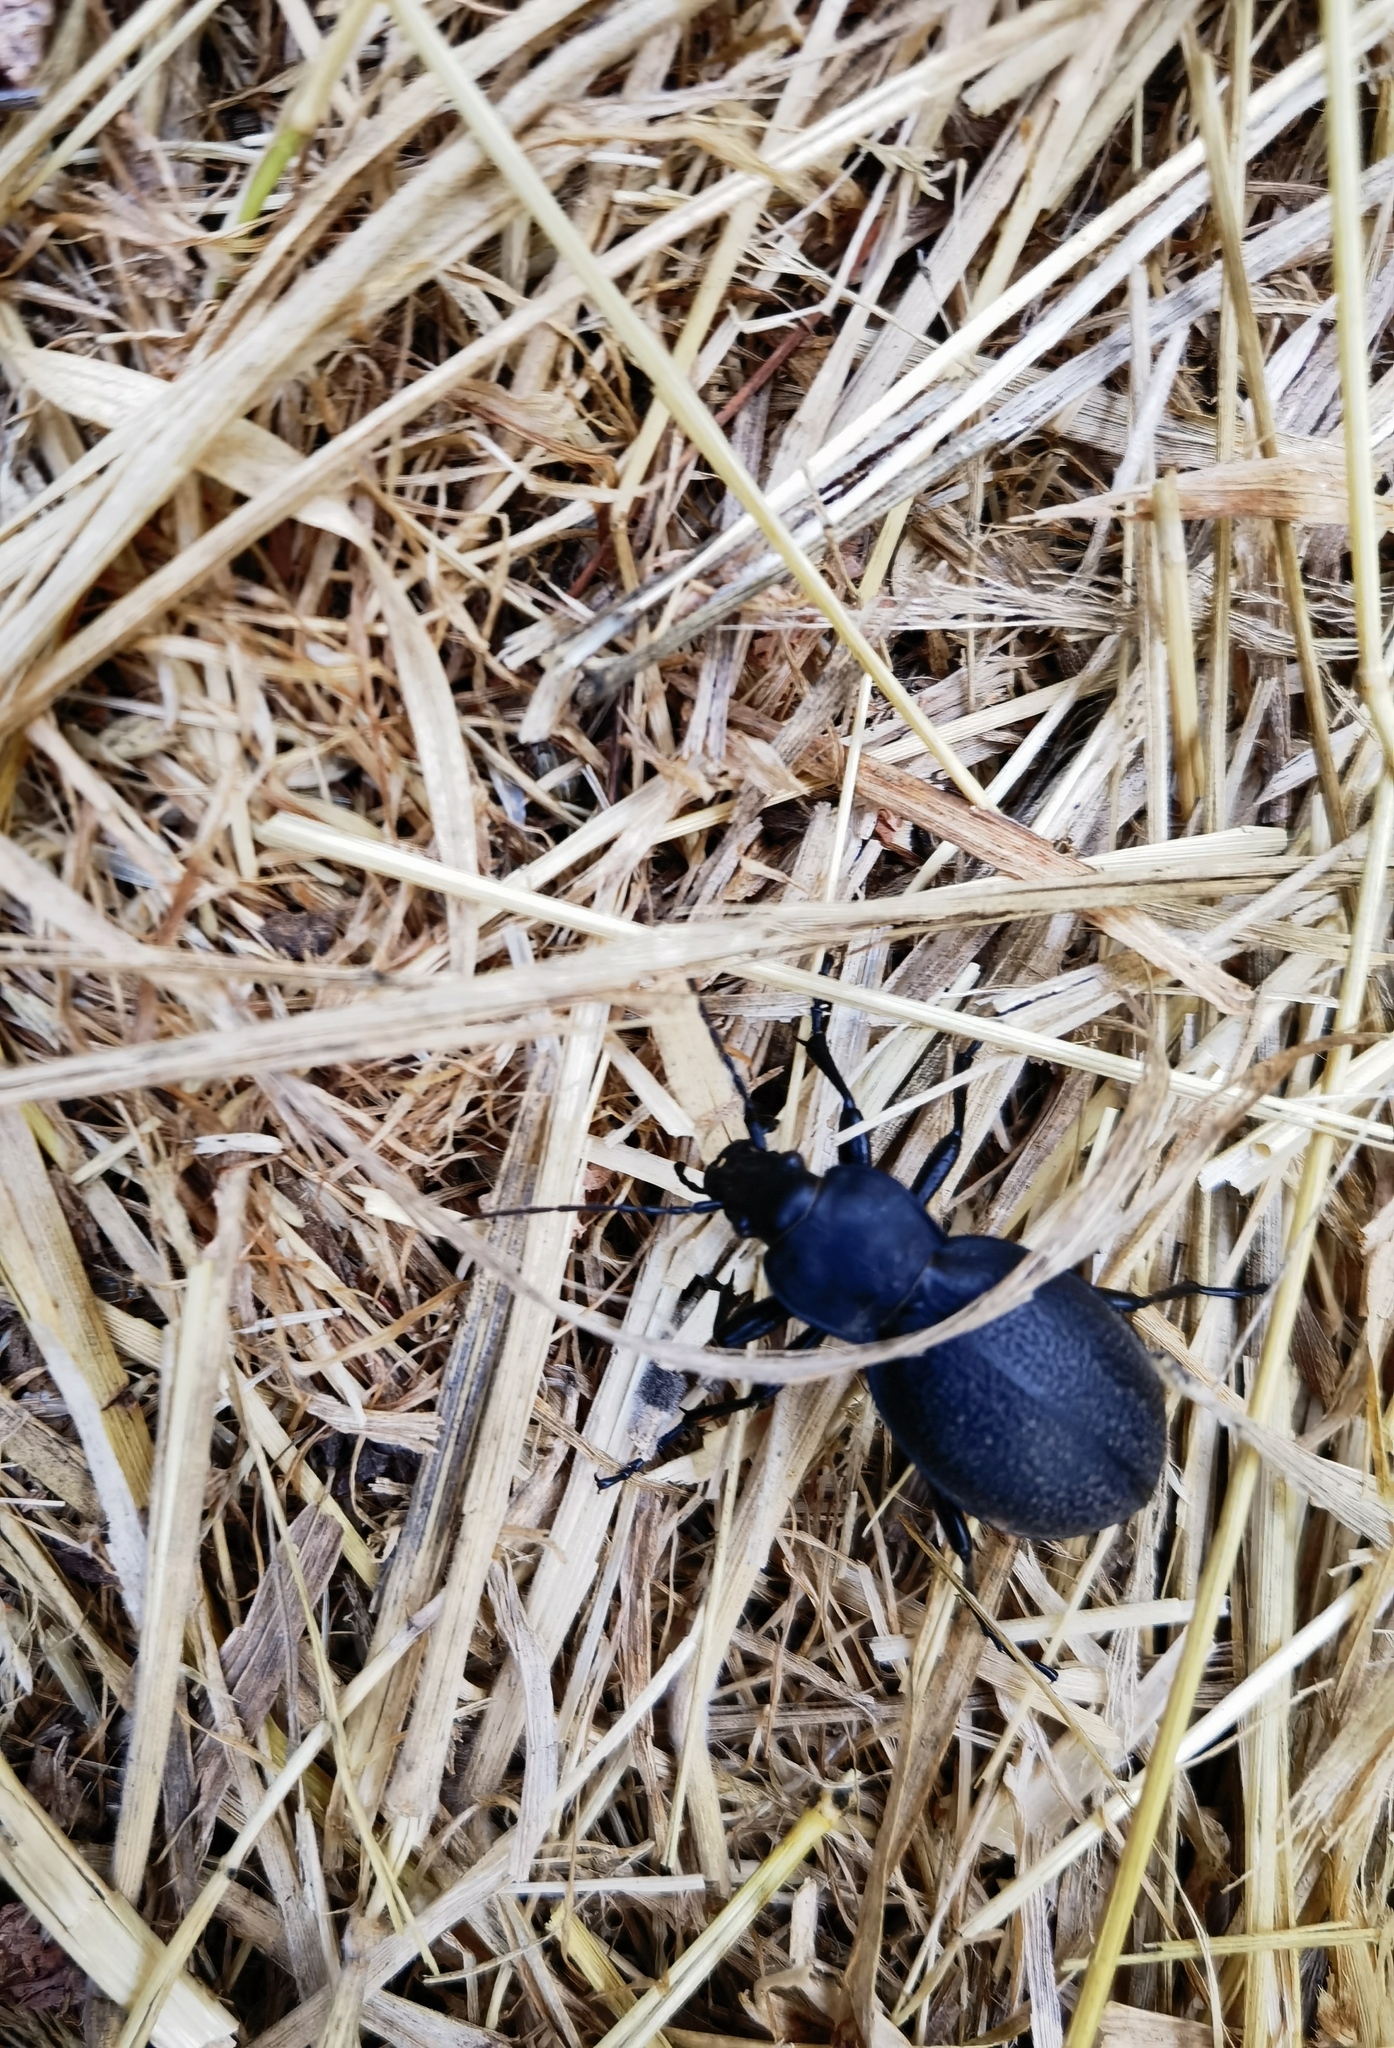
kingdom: Animalia
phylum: Arthropoda
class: Insecta
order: Coleoptera
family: Carabidae
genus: Carabus
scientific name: Carabus coriaceus
